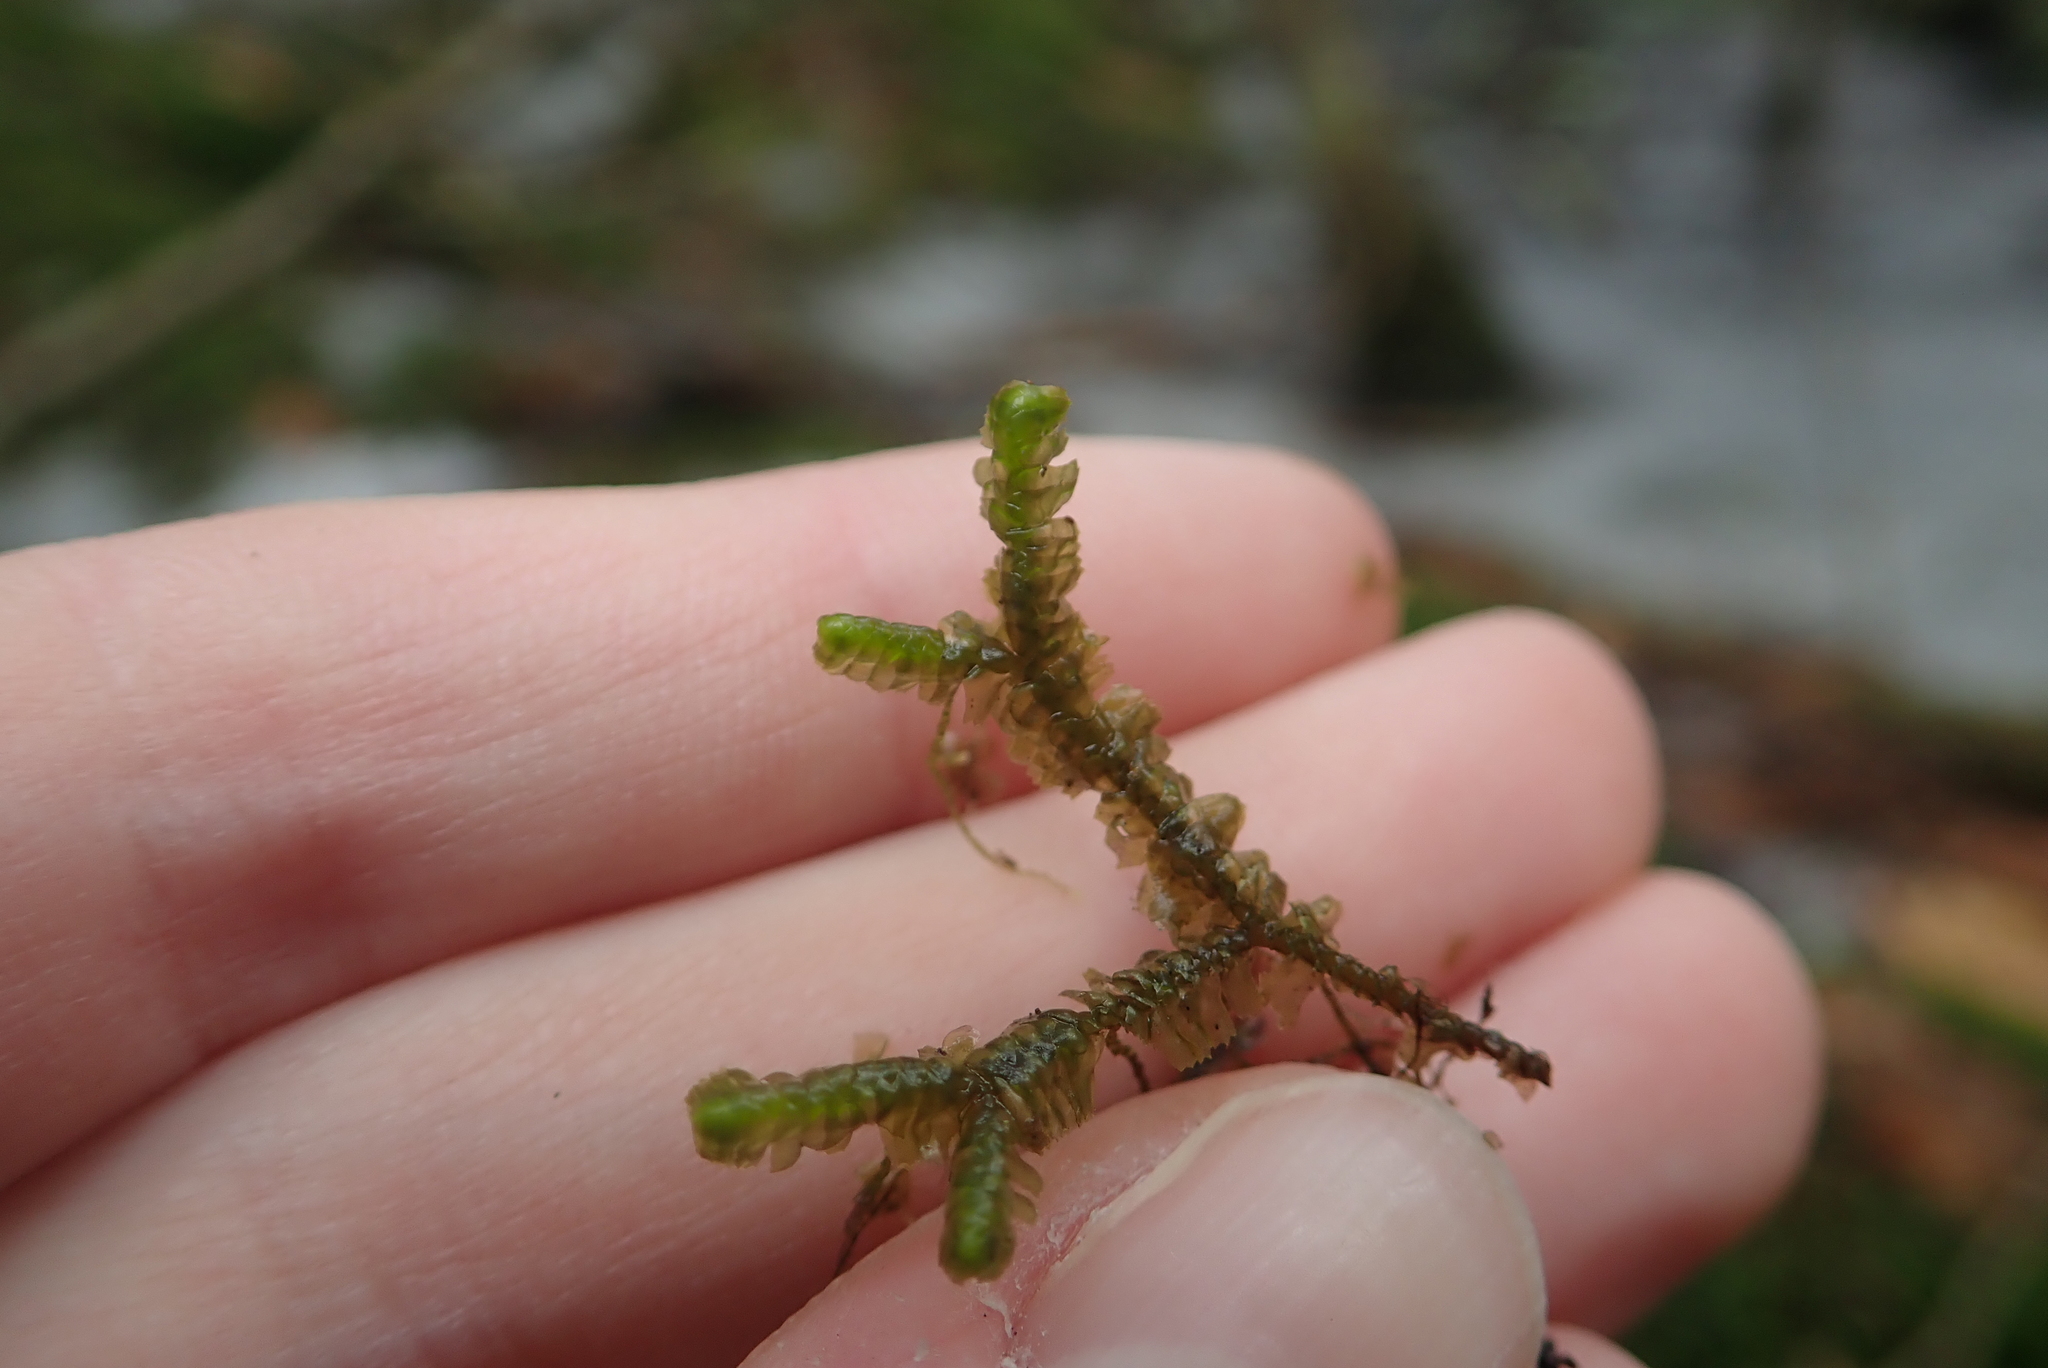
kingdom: Plantae
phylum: Marchantiophyta
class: Jungermanniopsida
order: Jungermanniales
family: Lepidoziaceae
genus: Bazzania
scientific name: Bazzania trilobata
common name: Three-lobed whipwort
